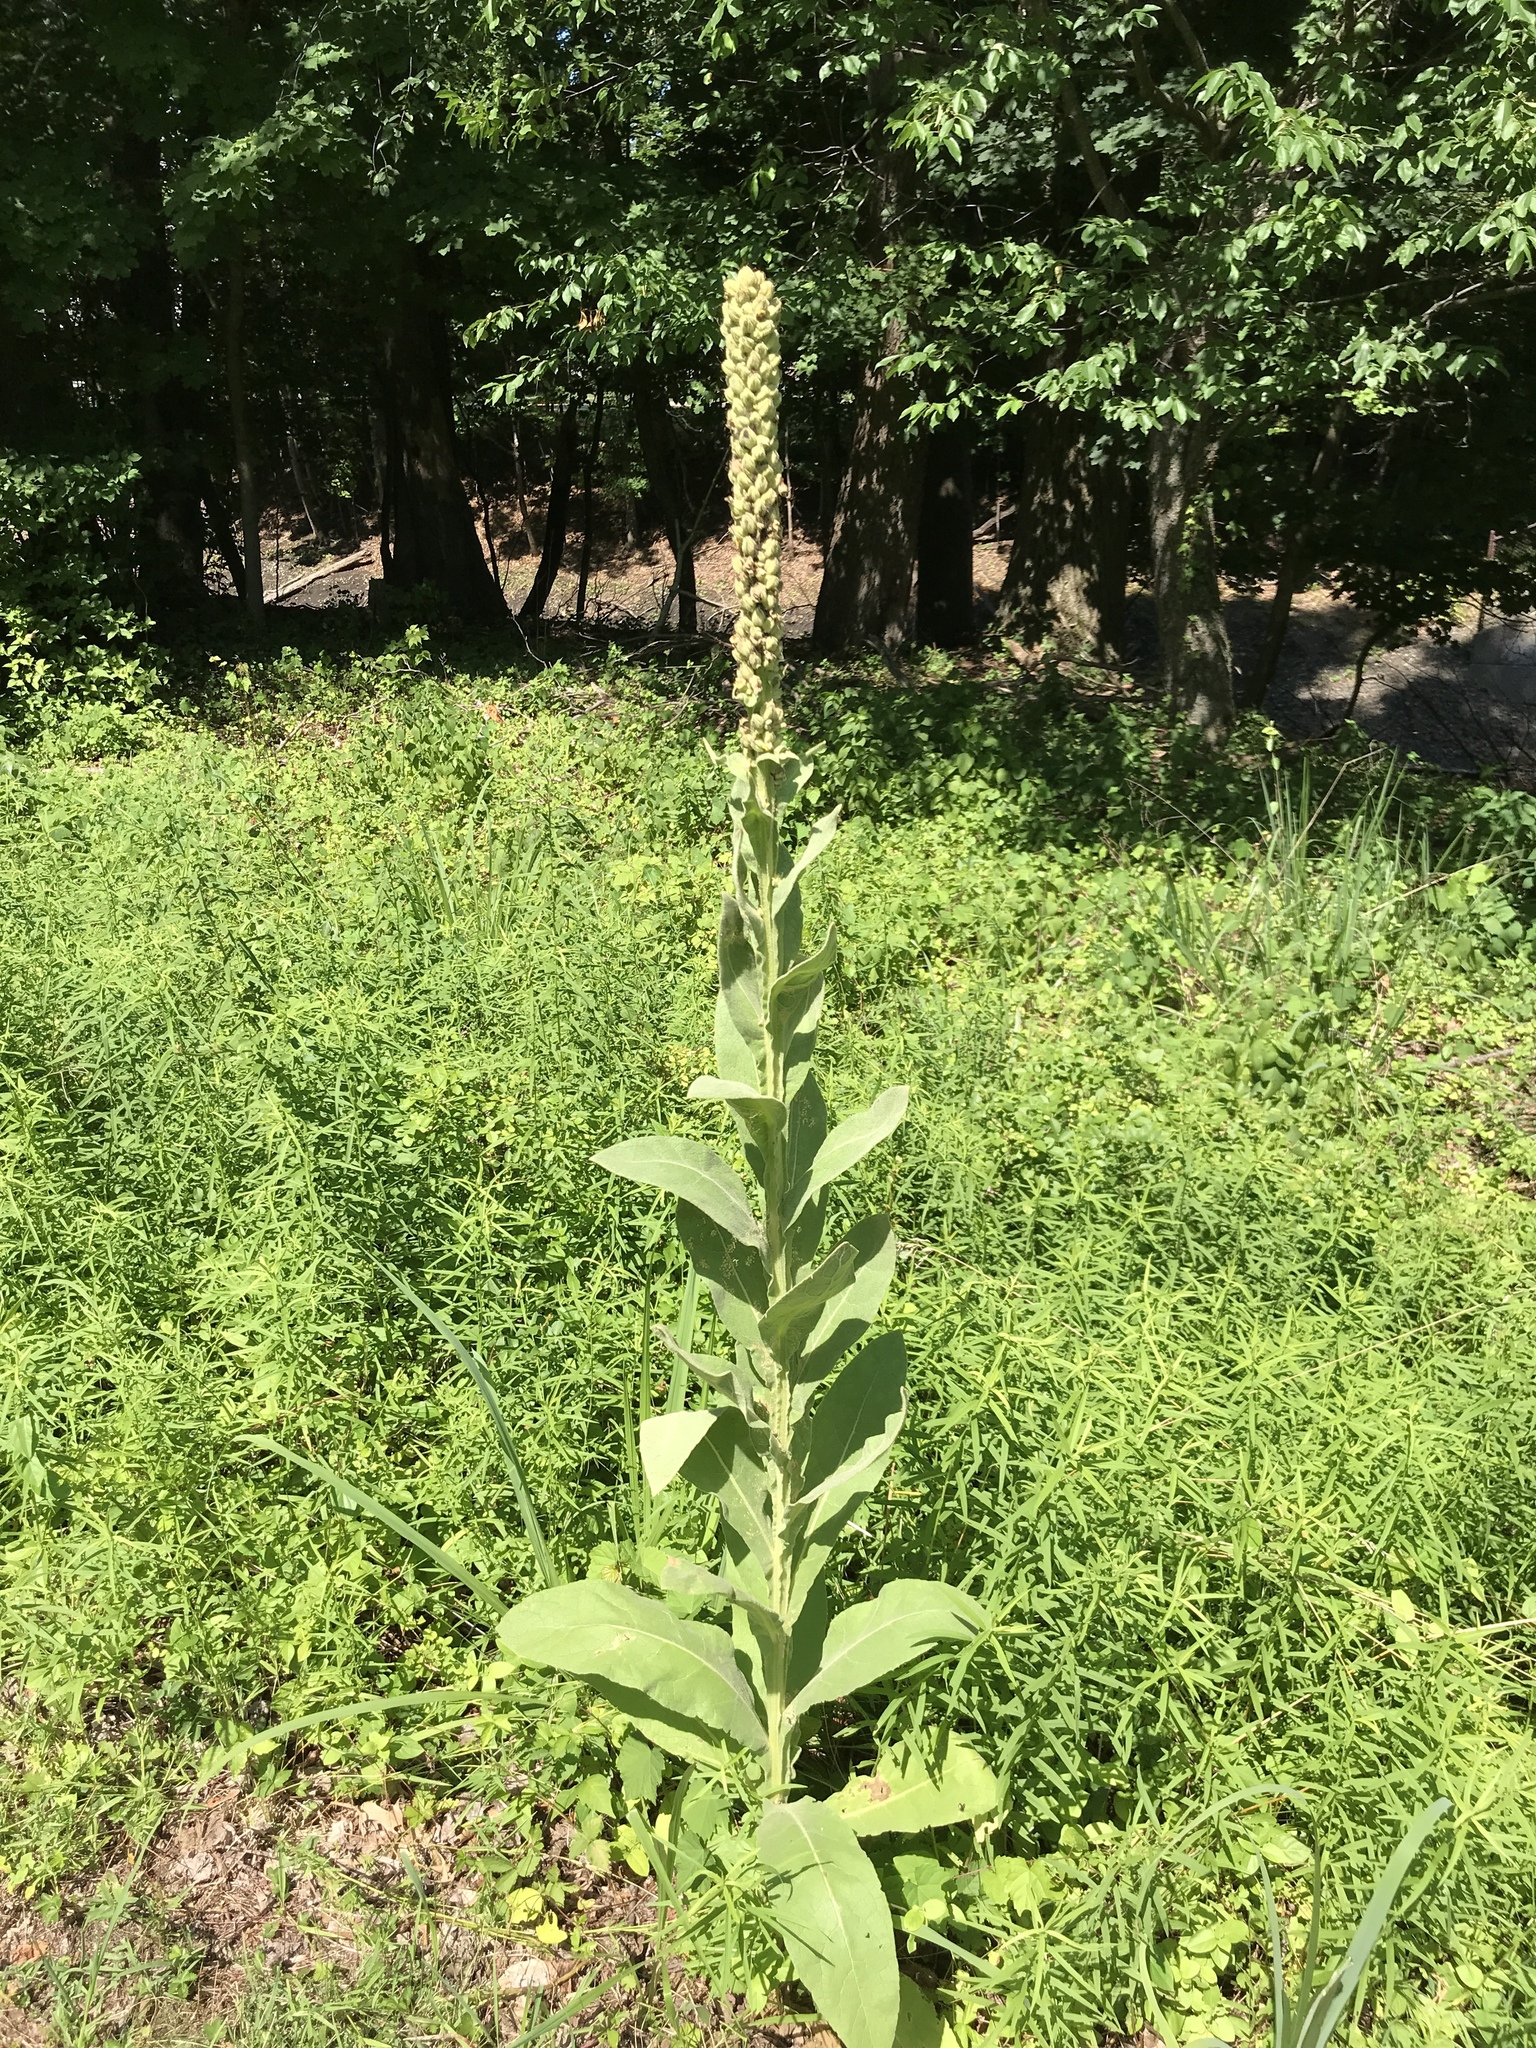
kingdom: Plantae
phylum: Tracheophyta
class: Magnoliopsida
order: Lamiales
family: Scrophulariaceae
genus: Verbascum
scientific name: Verbascum thapsus
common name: Common mullein
